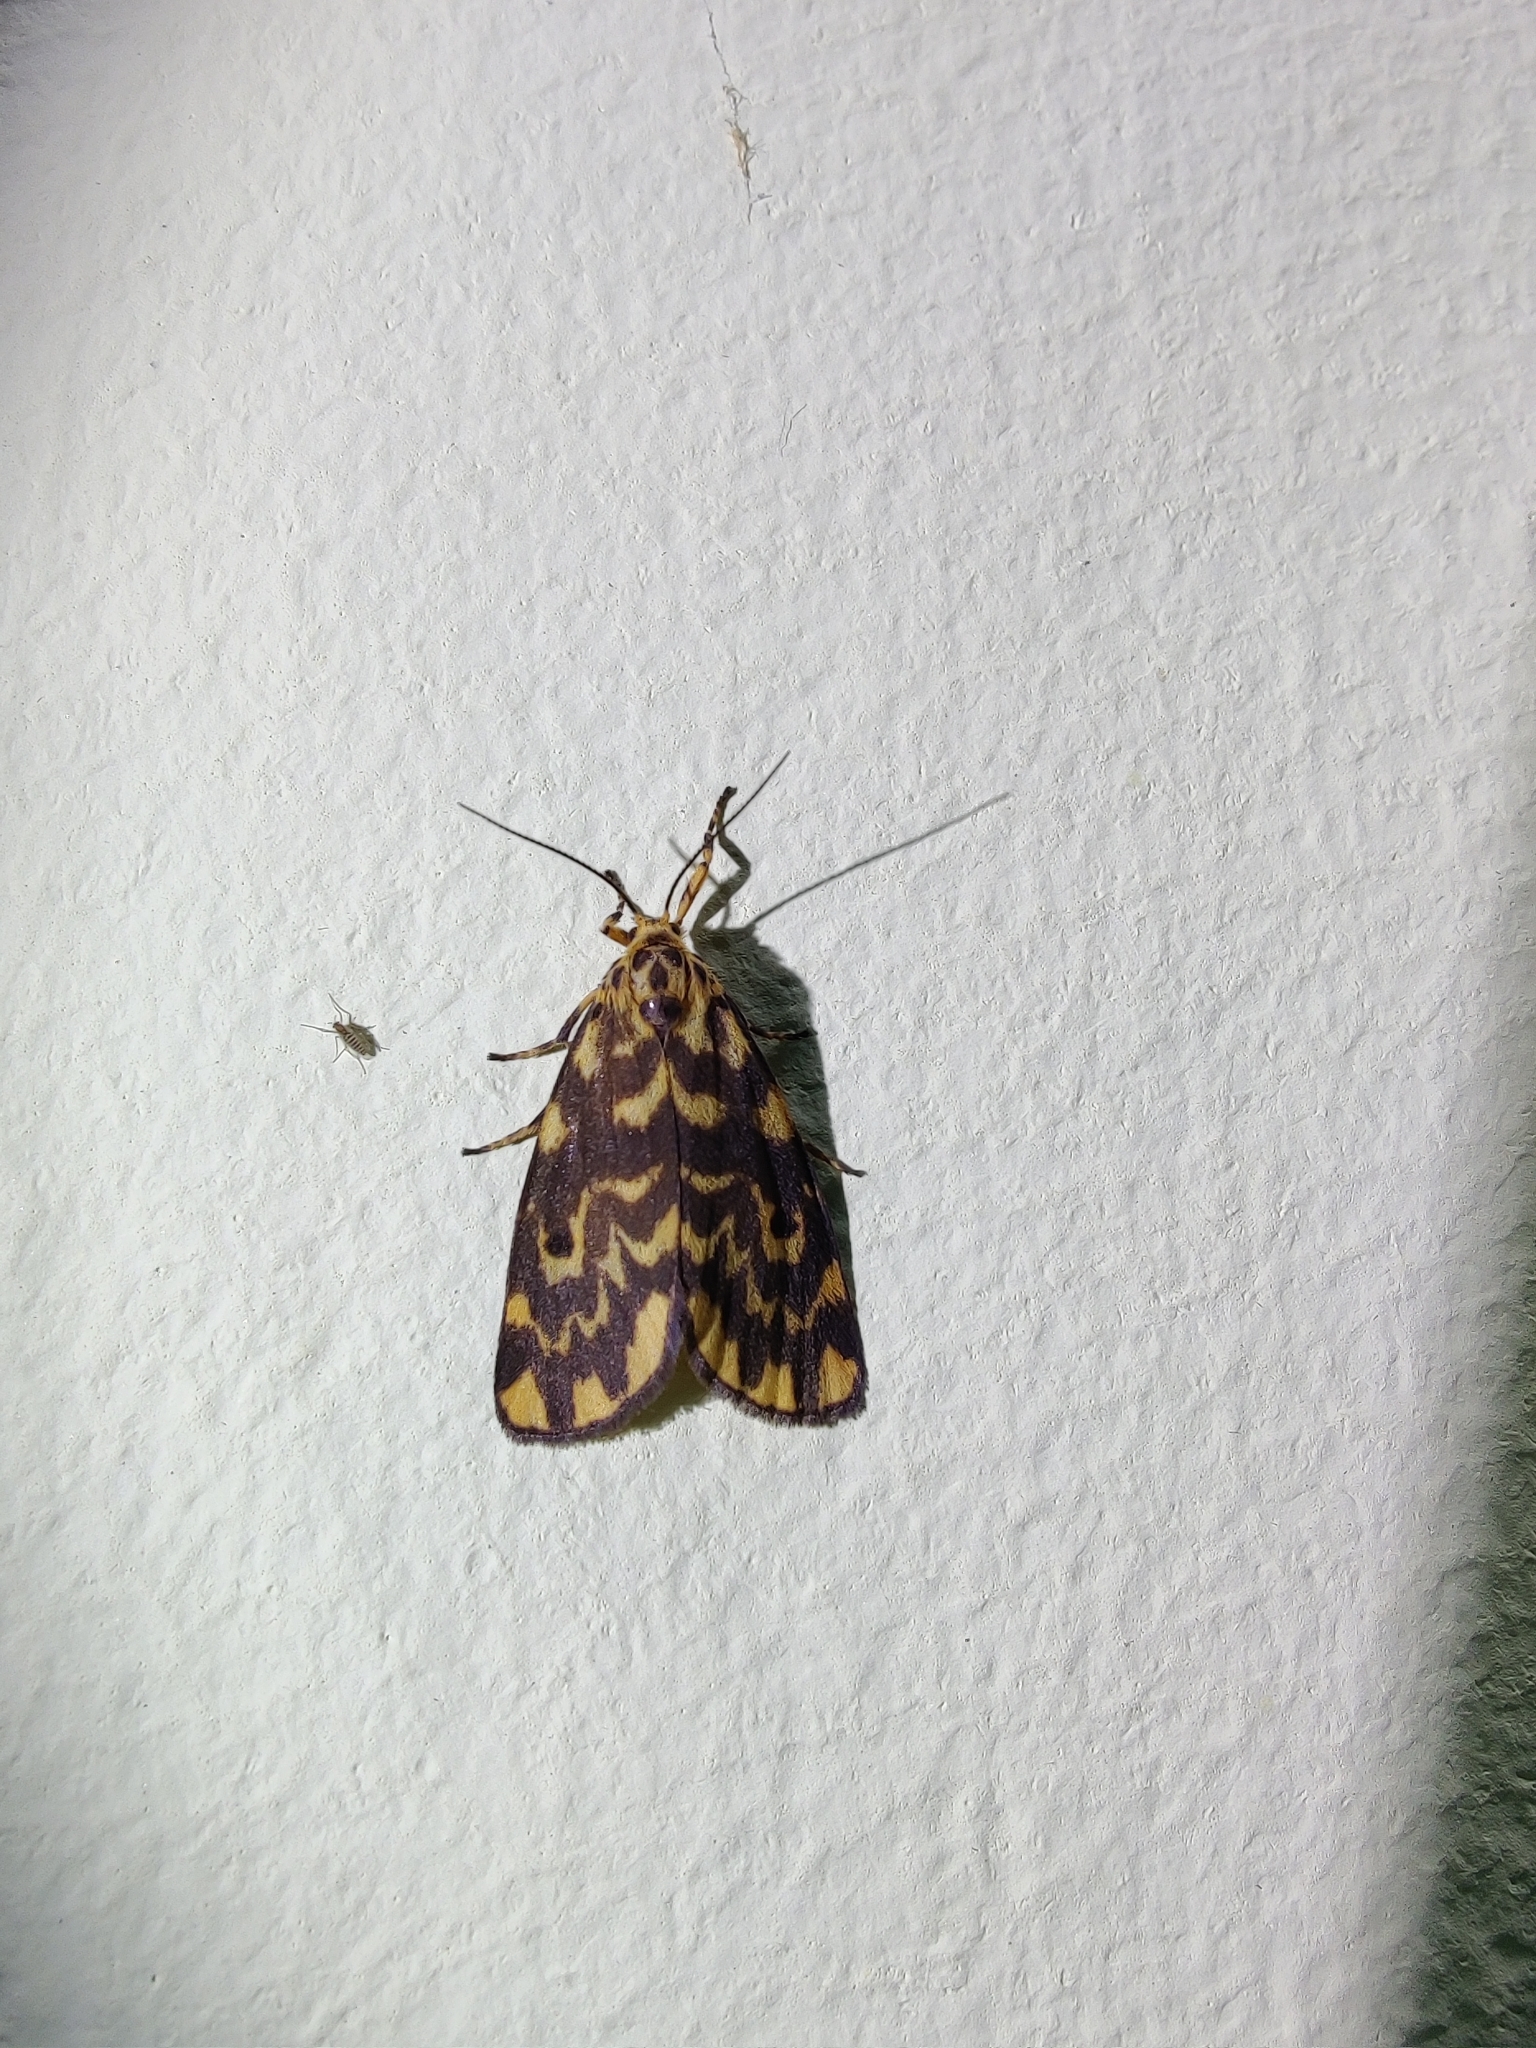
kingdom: Animalia
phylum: Arthropoda
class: Insecta
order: Lepidoptera
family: Erebidae
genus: Nepita
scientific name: Nepita conferta
